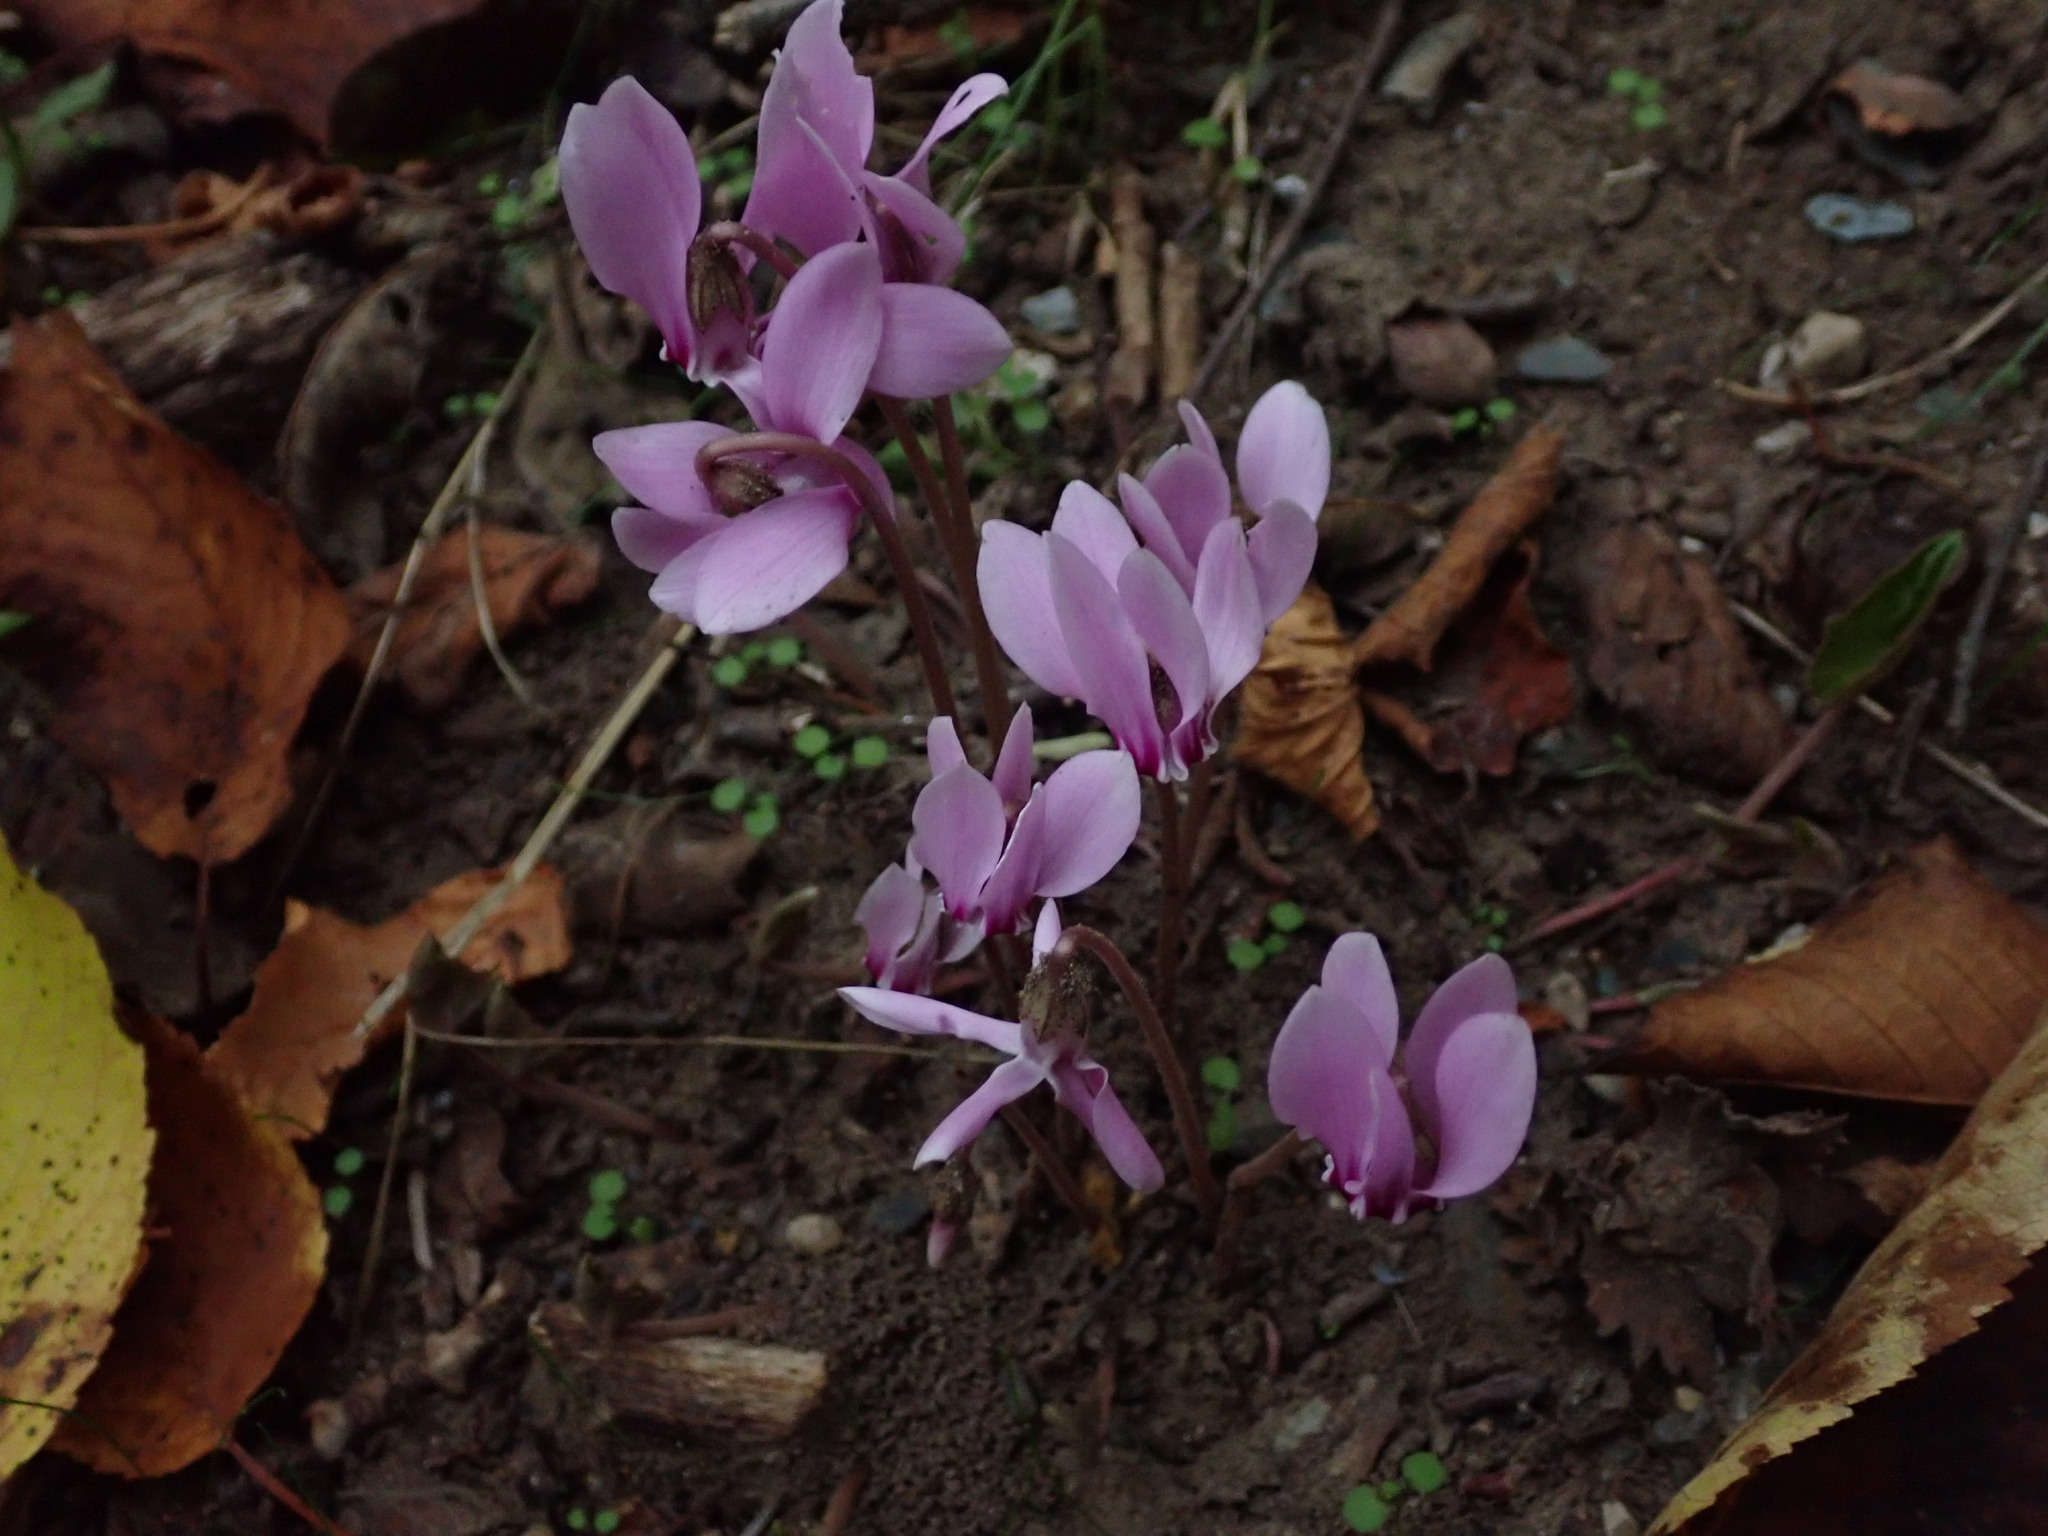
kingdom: Plantae
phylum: Tracheophyta
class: Magnoliopsida
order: Ericales
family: Primulaceae
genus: Cyclamen
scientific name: Cyclamen hederifolium
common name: Sowbread
